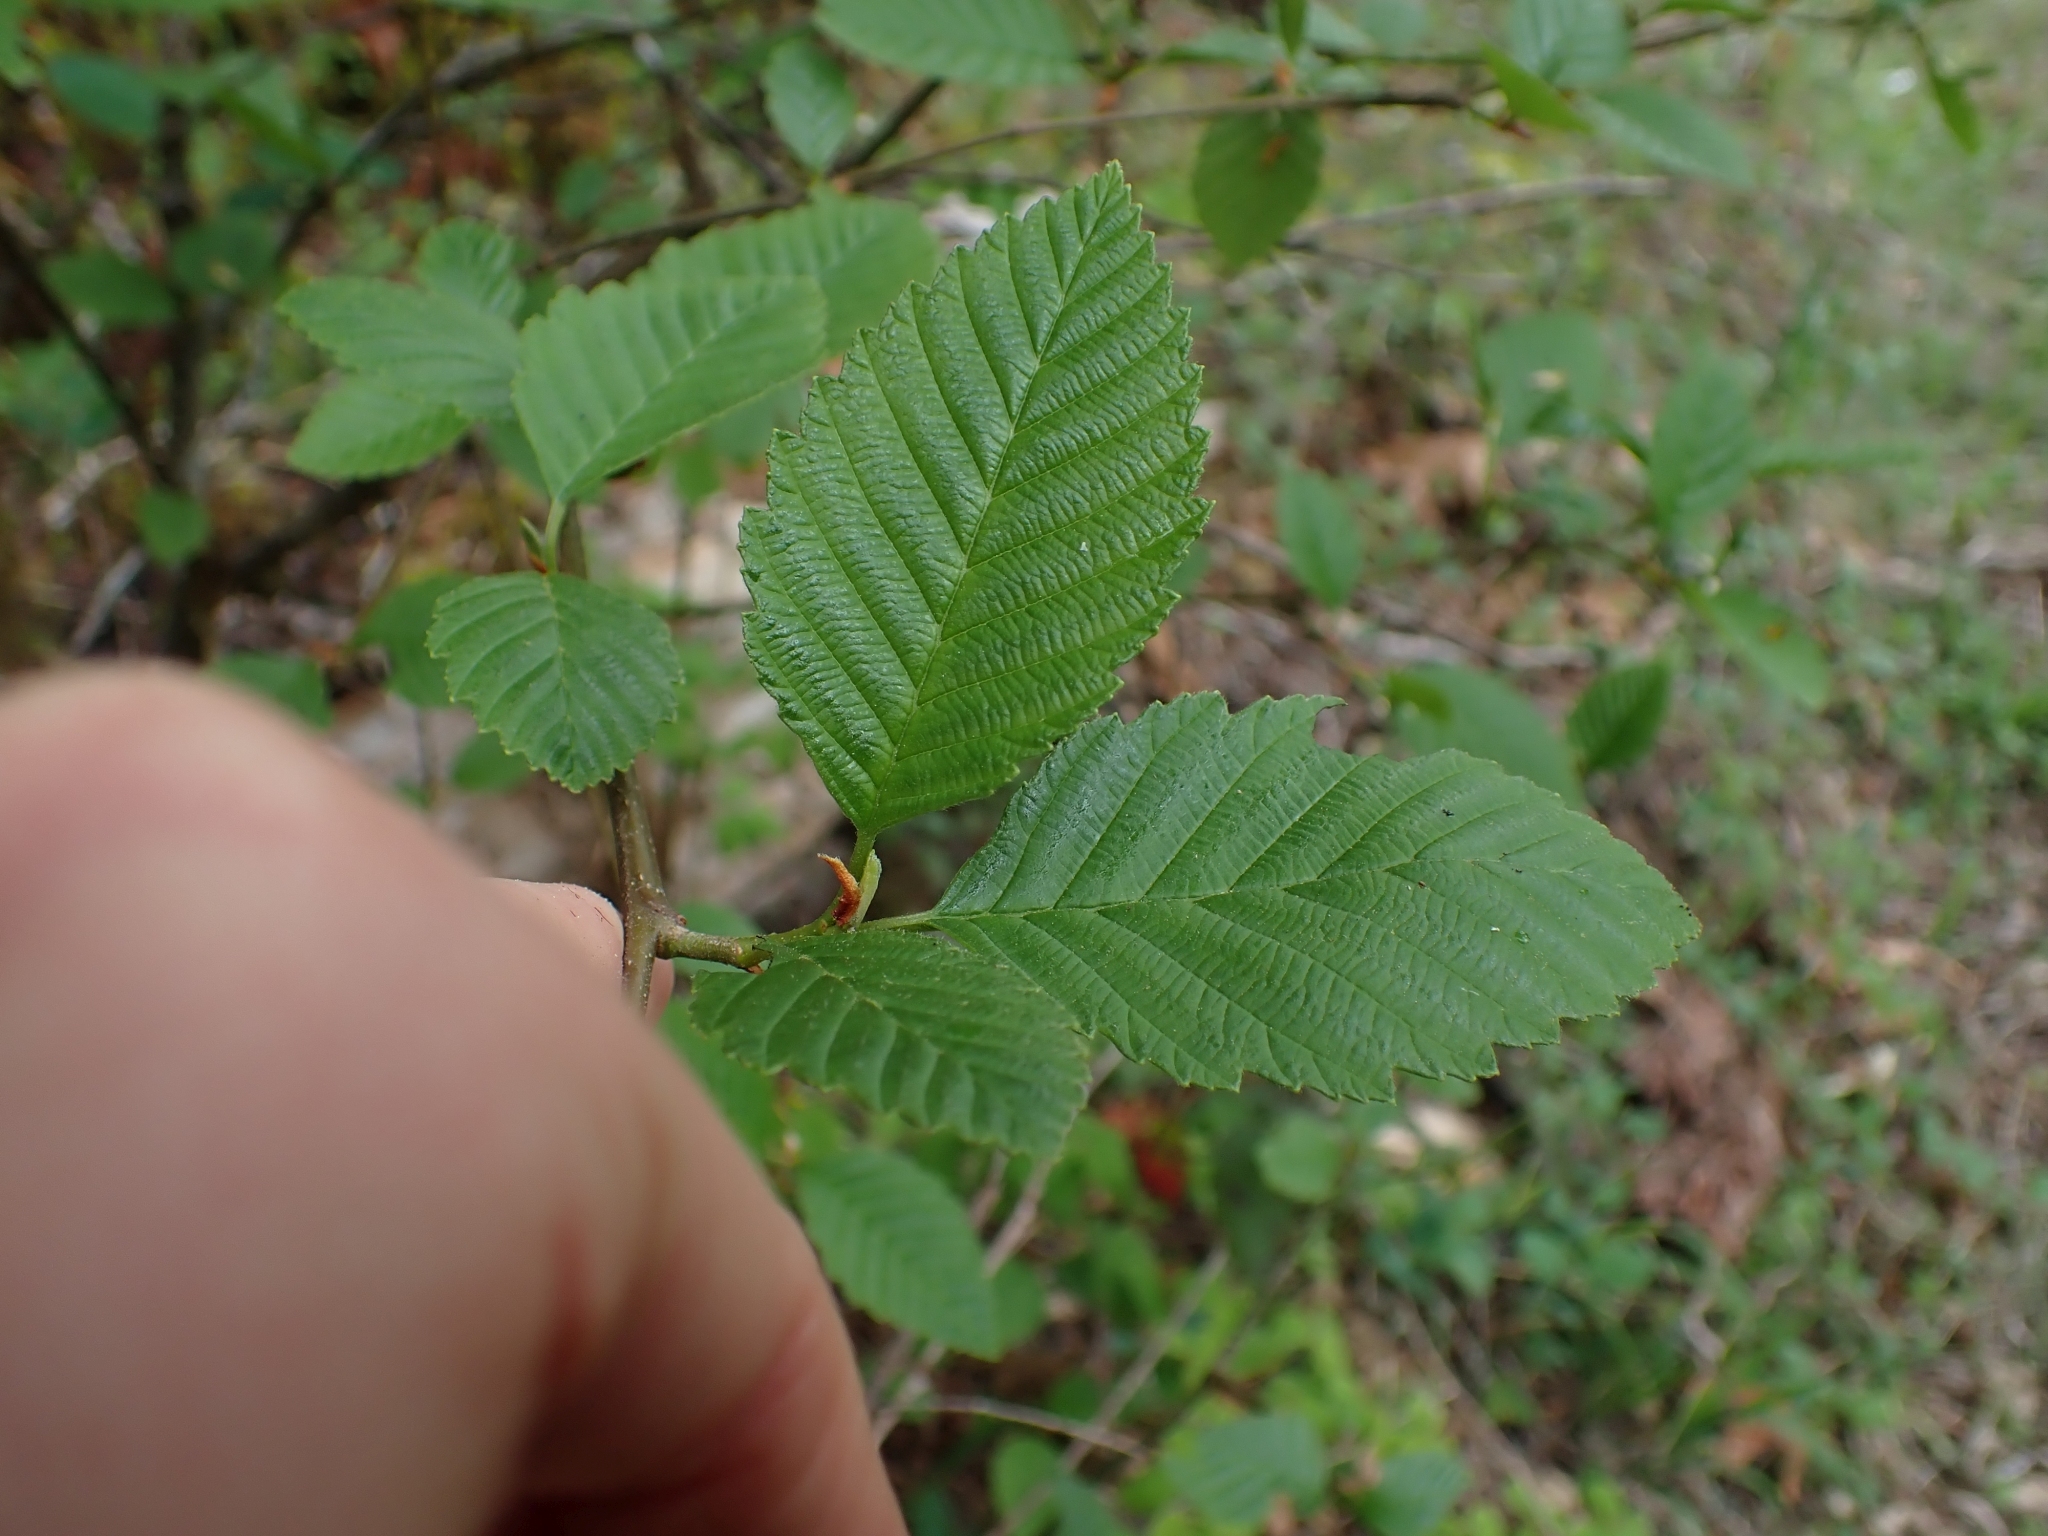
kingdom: Plantae
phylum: Tracheophyta
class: Magnoliopsida
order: Fagales
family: Betulaceae
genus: Alnus
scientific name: Alnus rubra
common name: Red alder
